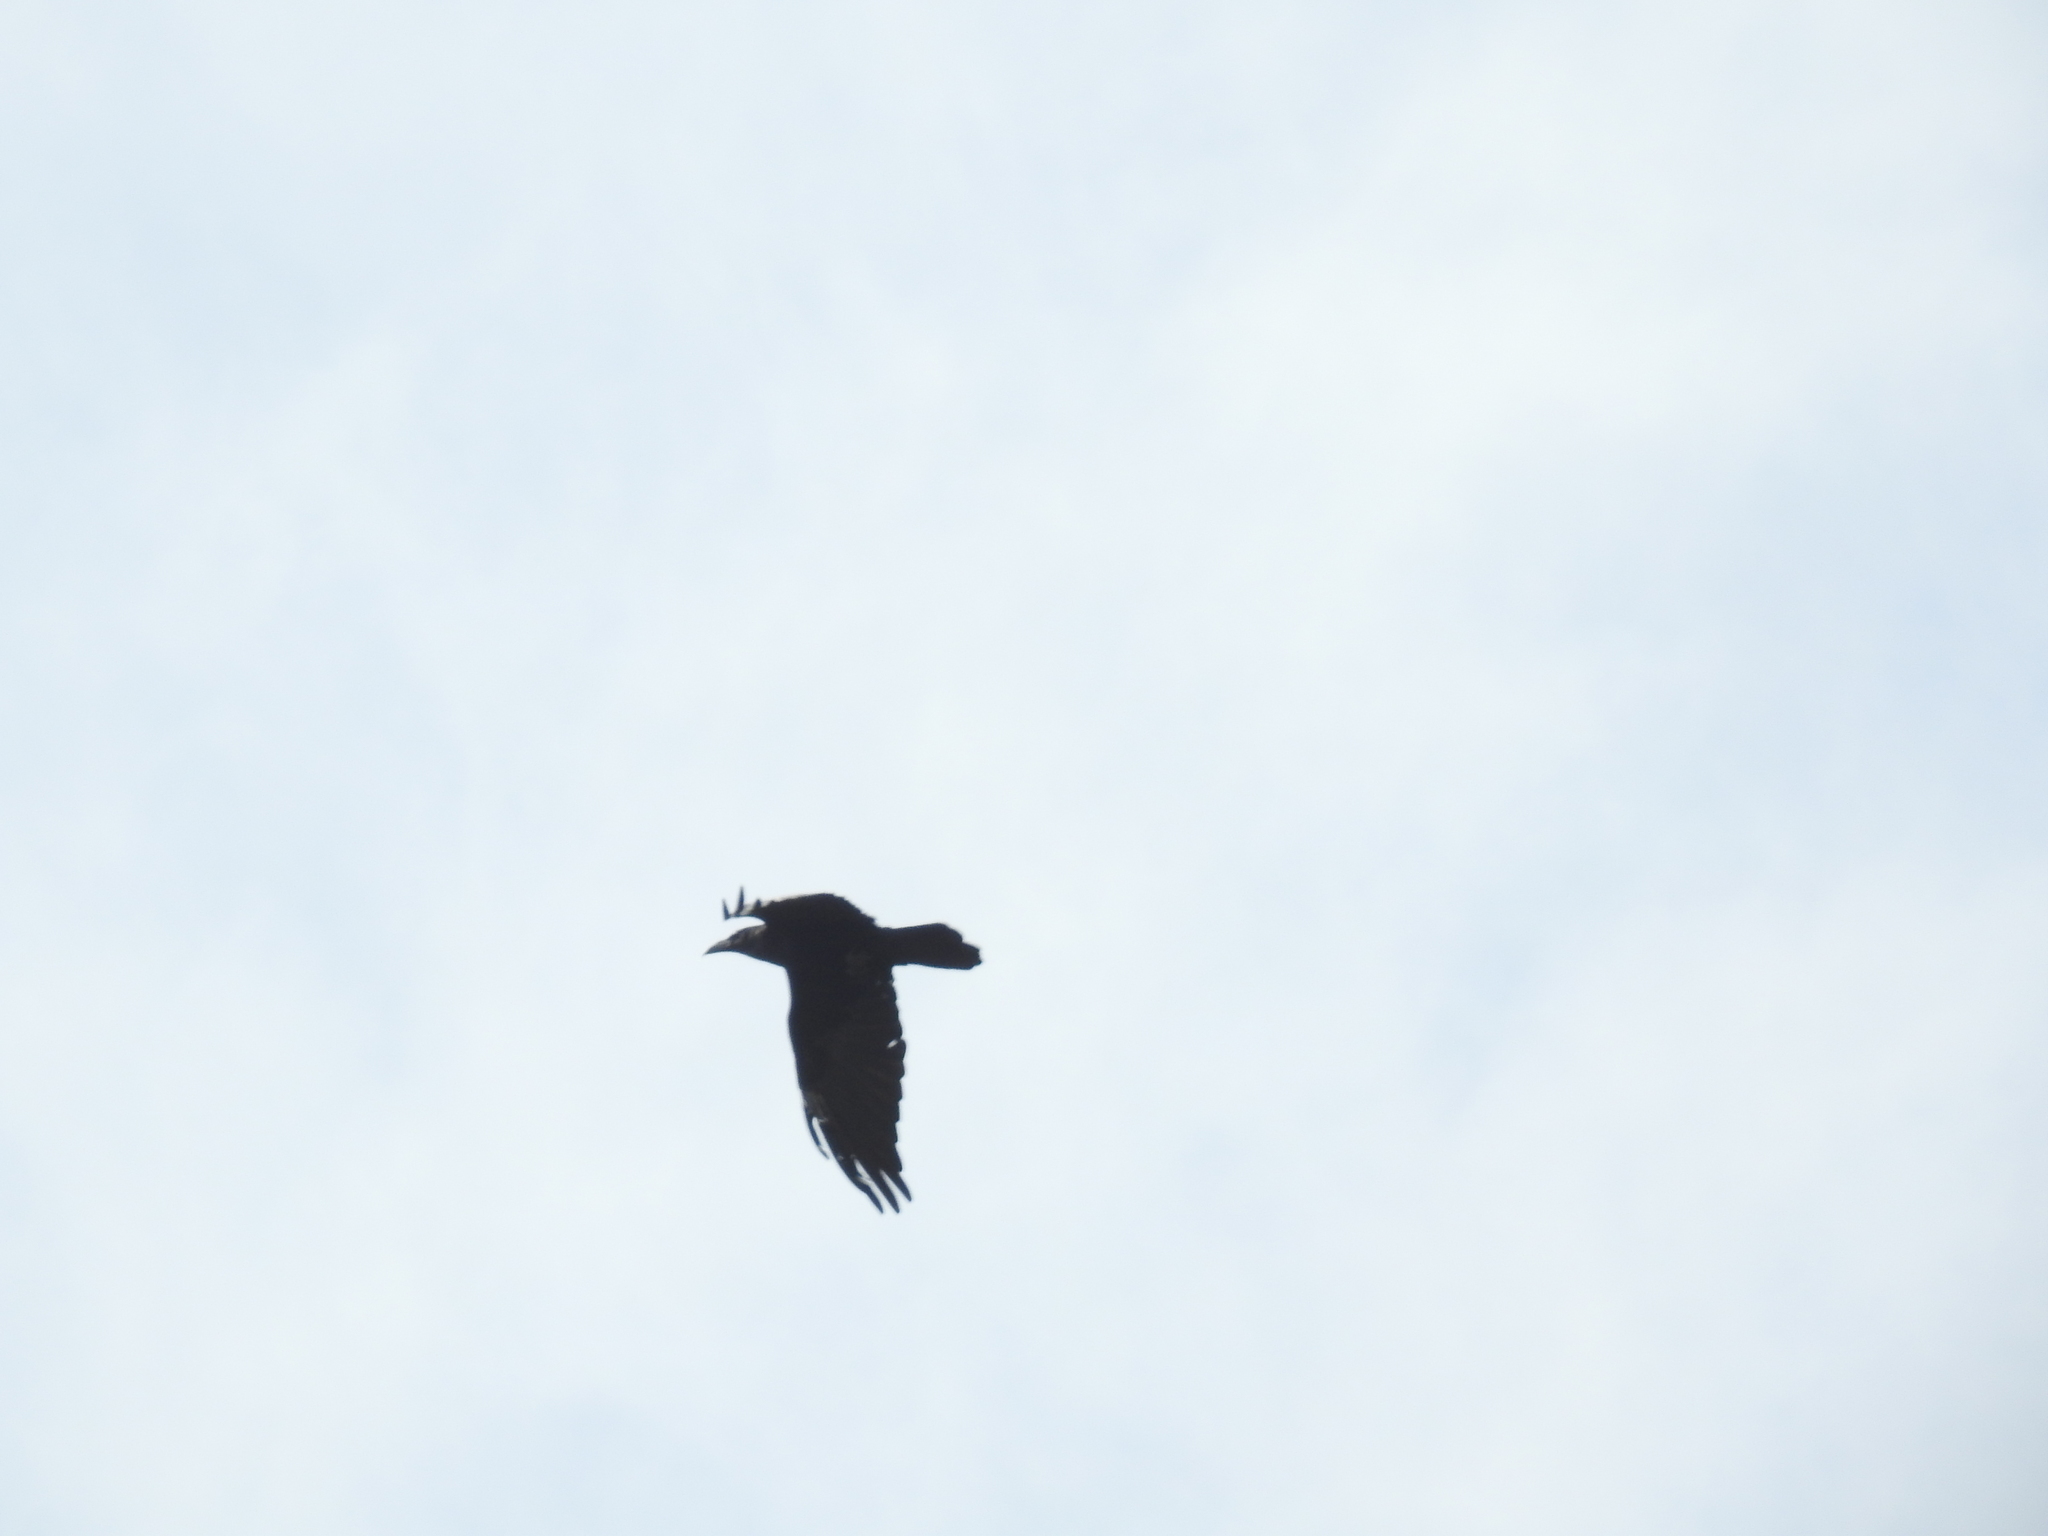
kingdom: Animalia
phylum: Chordata
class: Aves
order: Passeriformes
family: Corvidae
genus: Corvus
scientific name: Corvus corax
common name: Common raven
